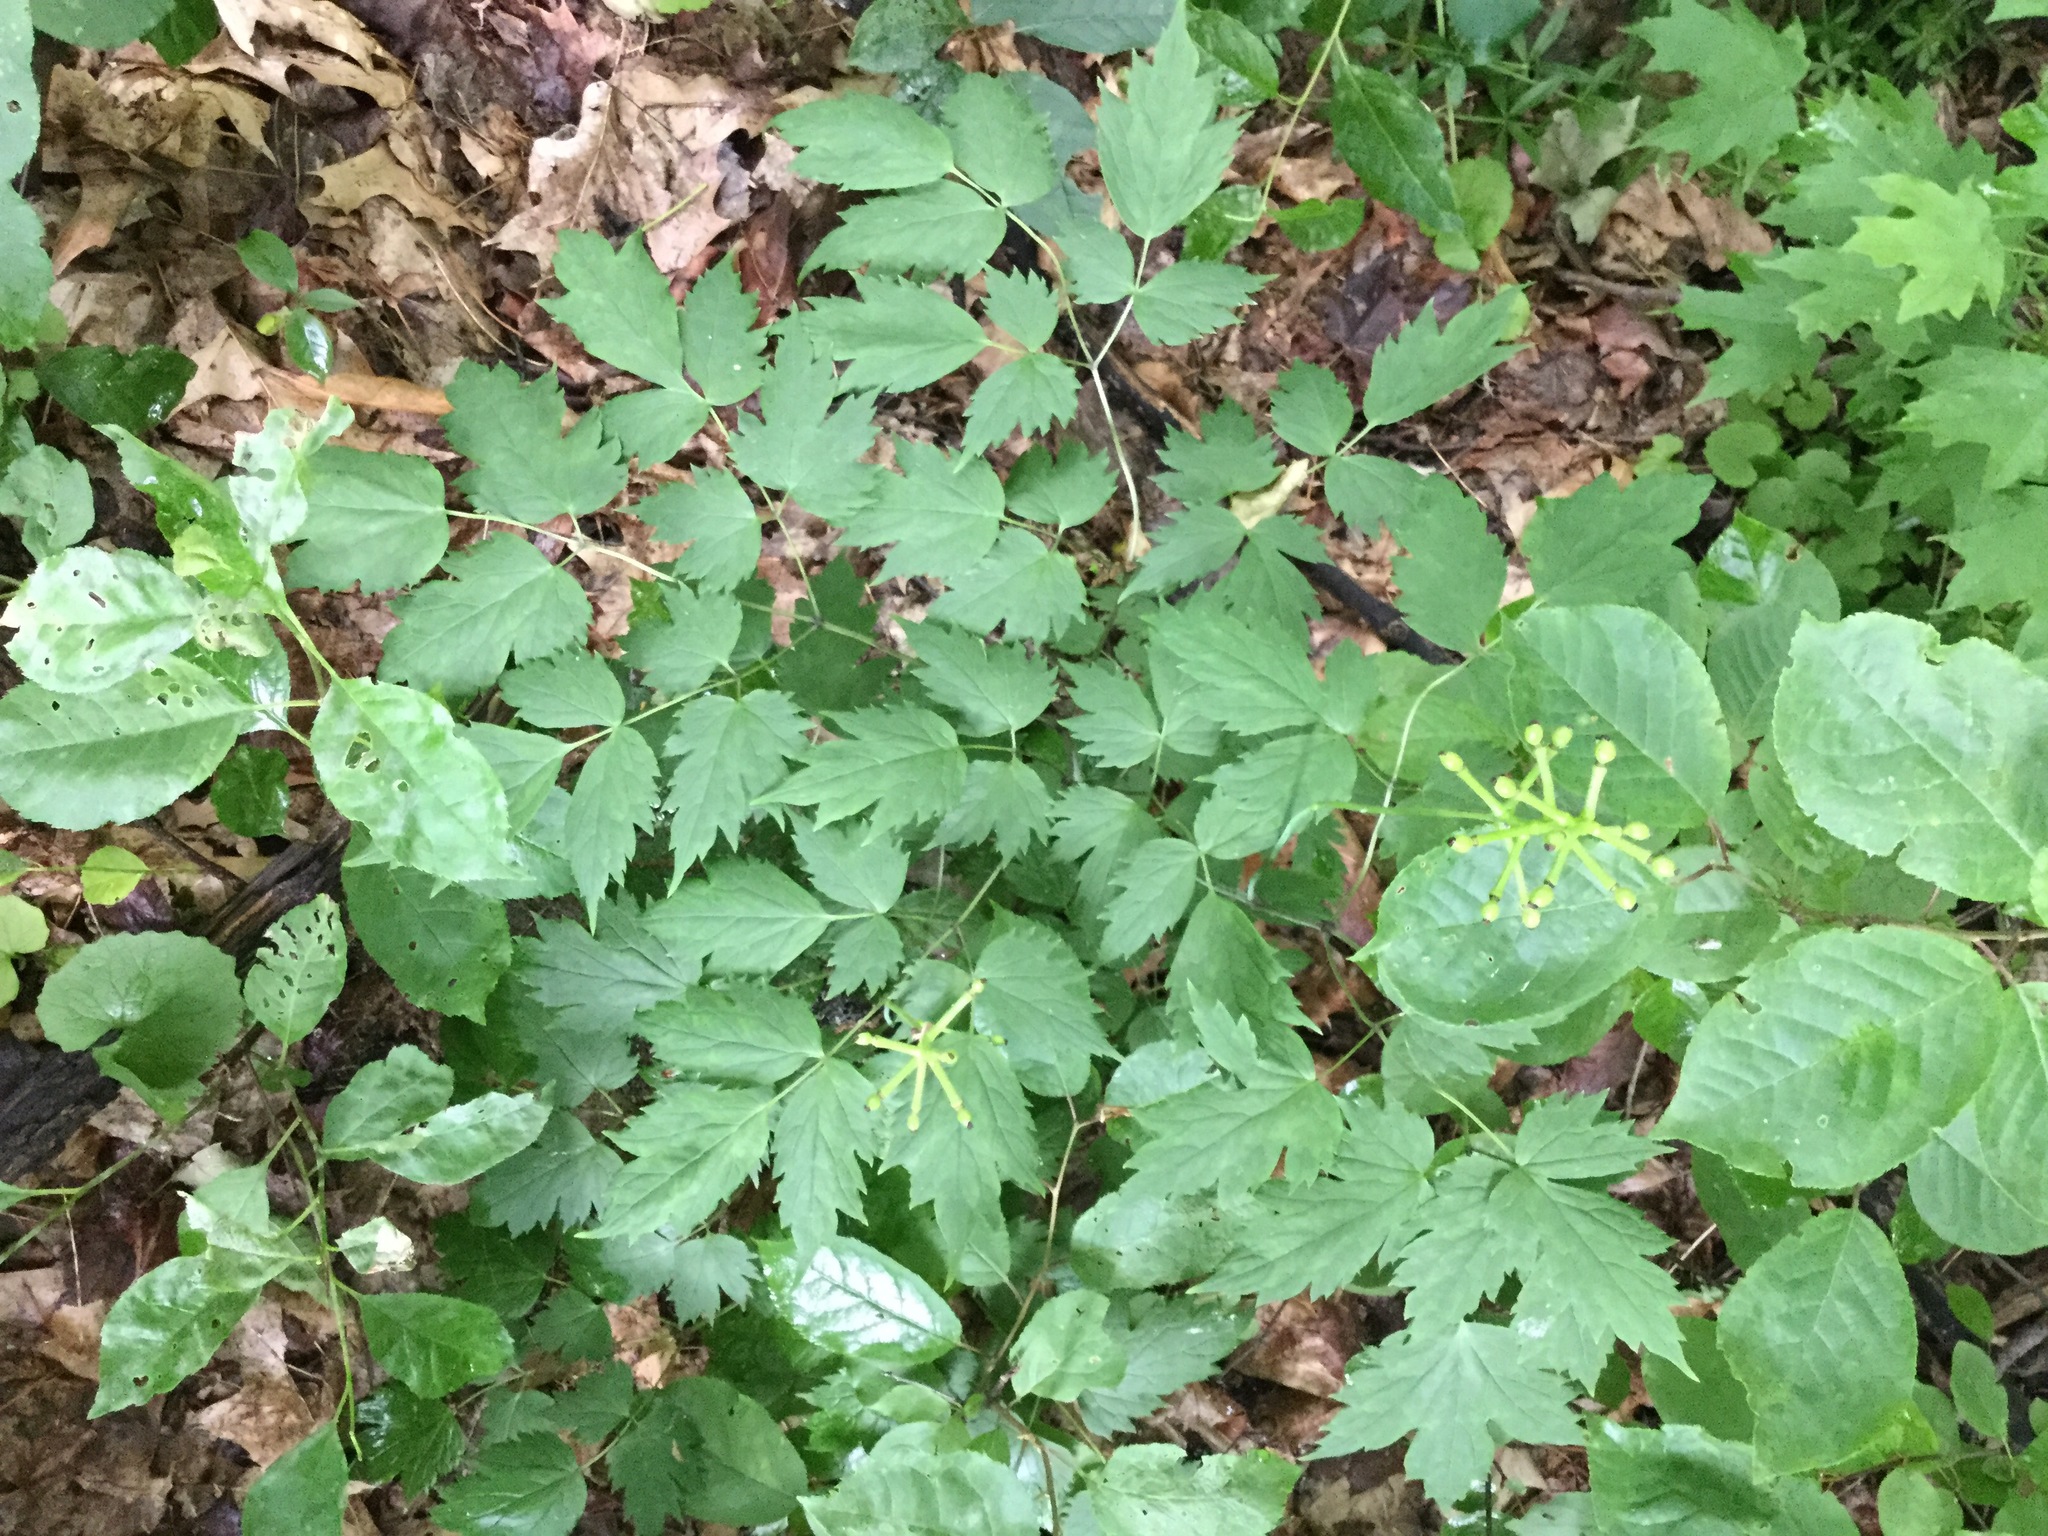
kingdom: Plantae
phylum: Tracheophyta
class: Magnoliopsida
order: Ranunculales
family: Ranunculaceae
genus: Actaea
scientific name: Actaea pachypoda
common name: Doll's-eyes
